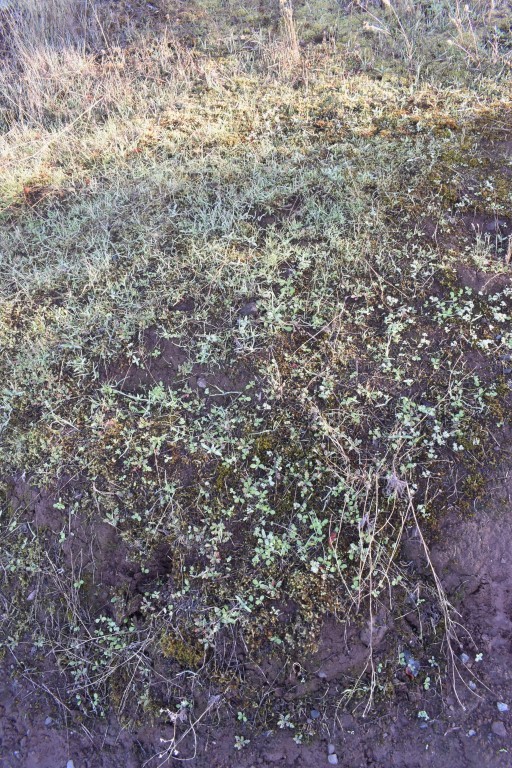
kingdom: Plantae
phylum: Tracheophyta
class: Magnoliopsida
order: Asterales
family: Asteraceae
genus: Madia
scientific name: Madia elegans
